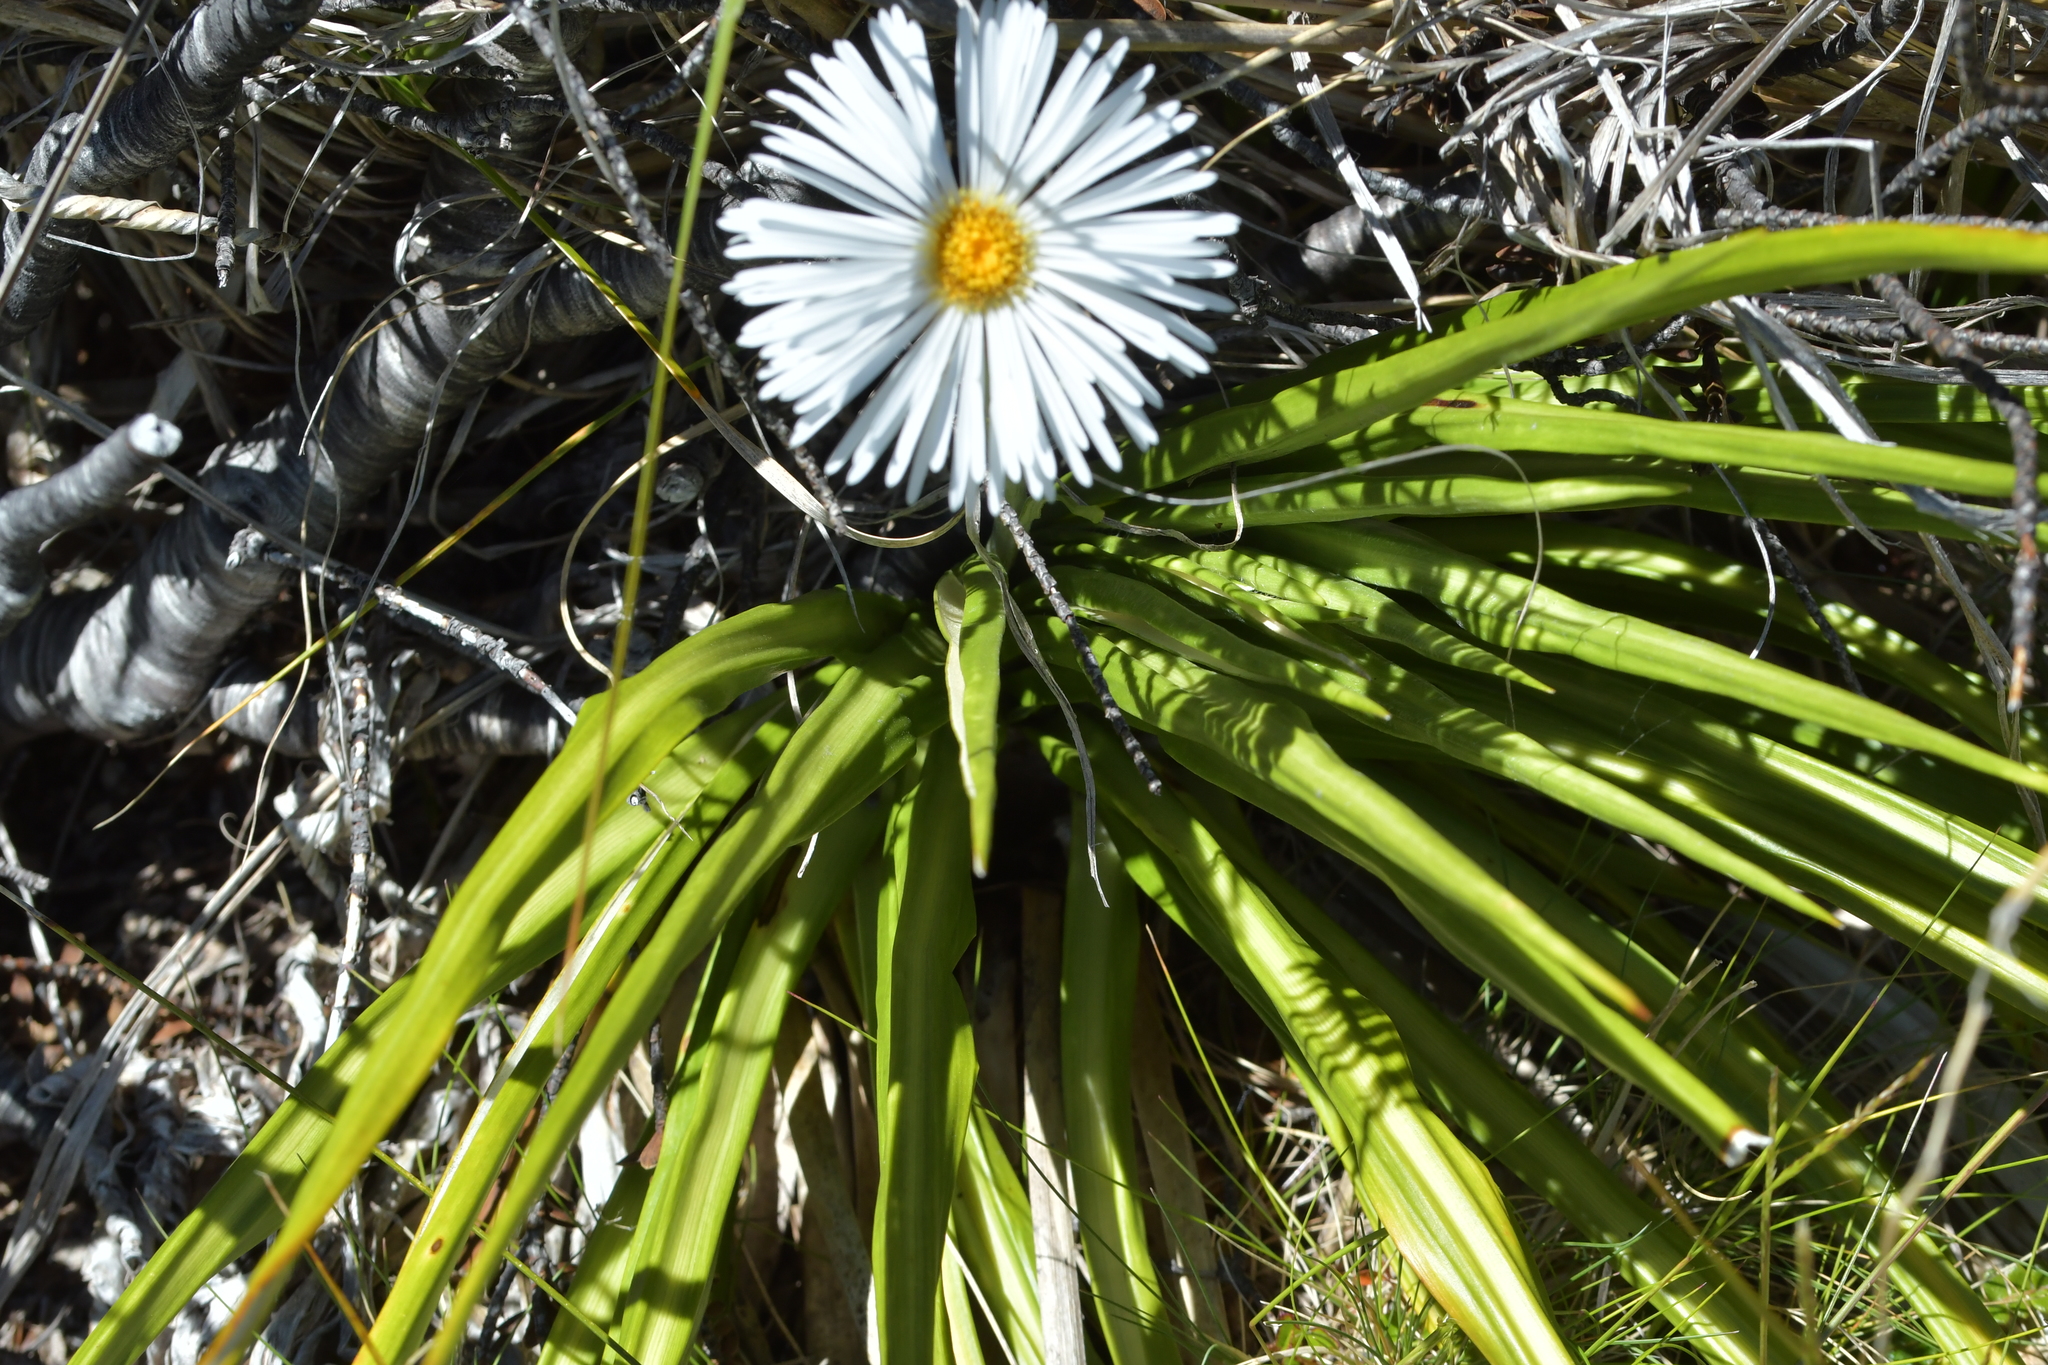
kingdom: Plantae
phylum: Tracheophyta
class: Magnoliopsida
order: Asterales
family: Asteraceae
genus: Celmisia
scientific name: Celmisia petriei
